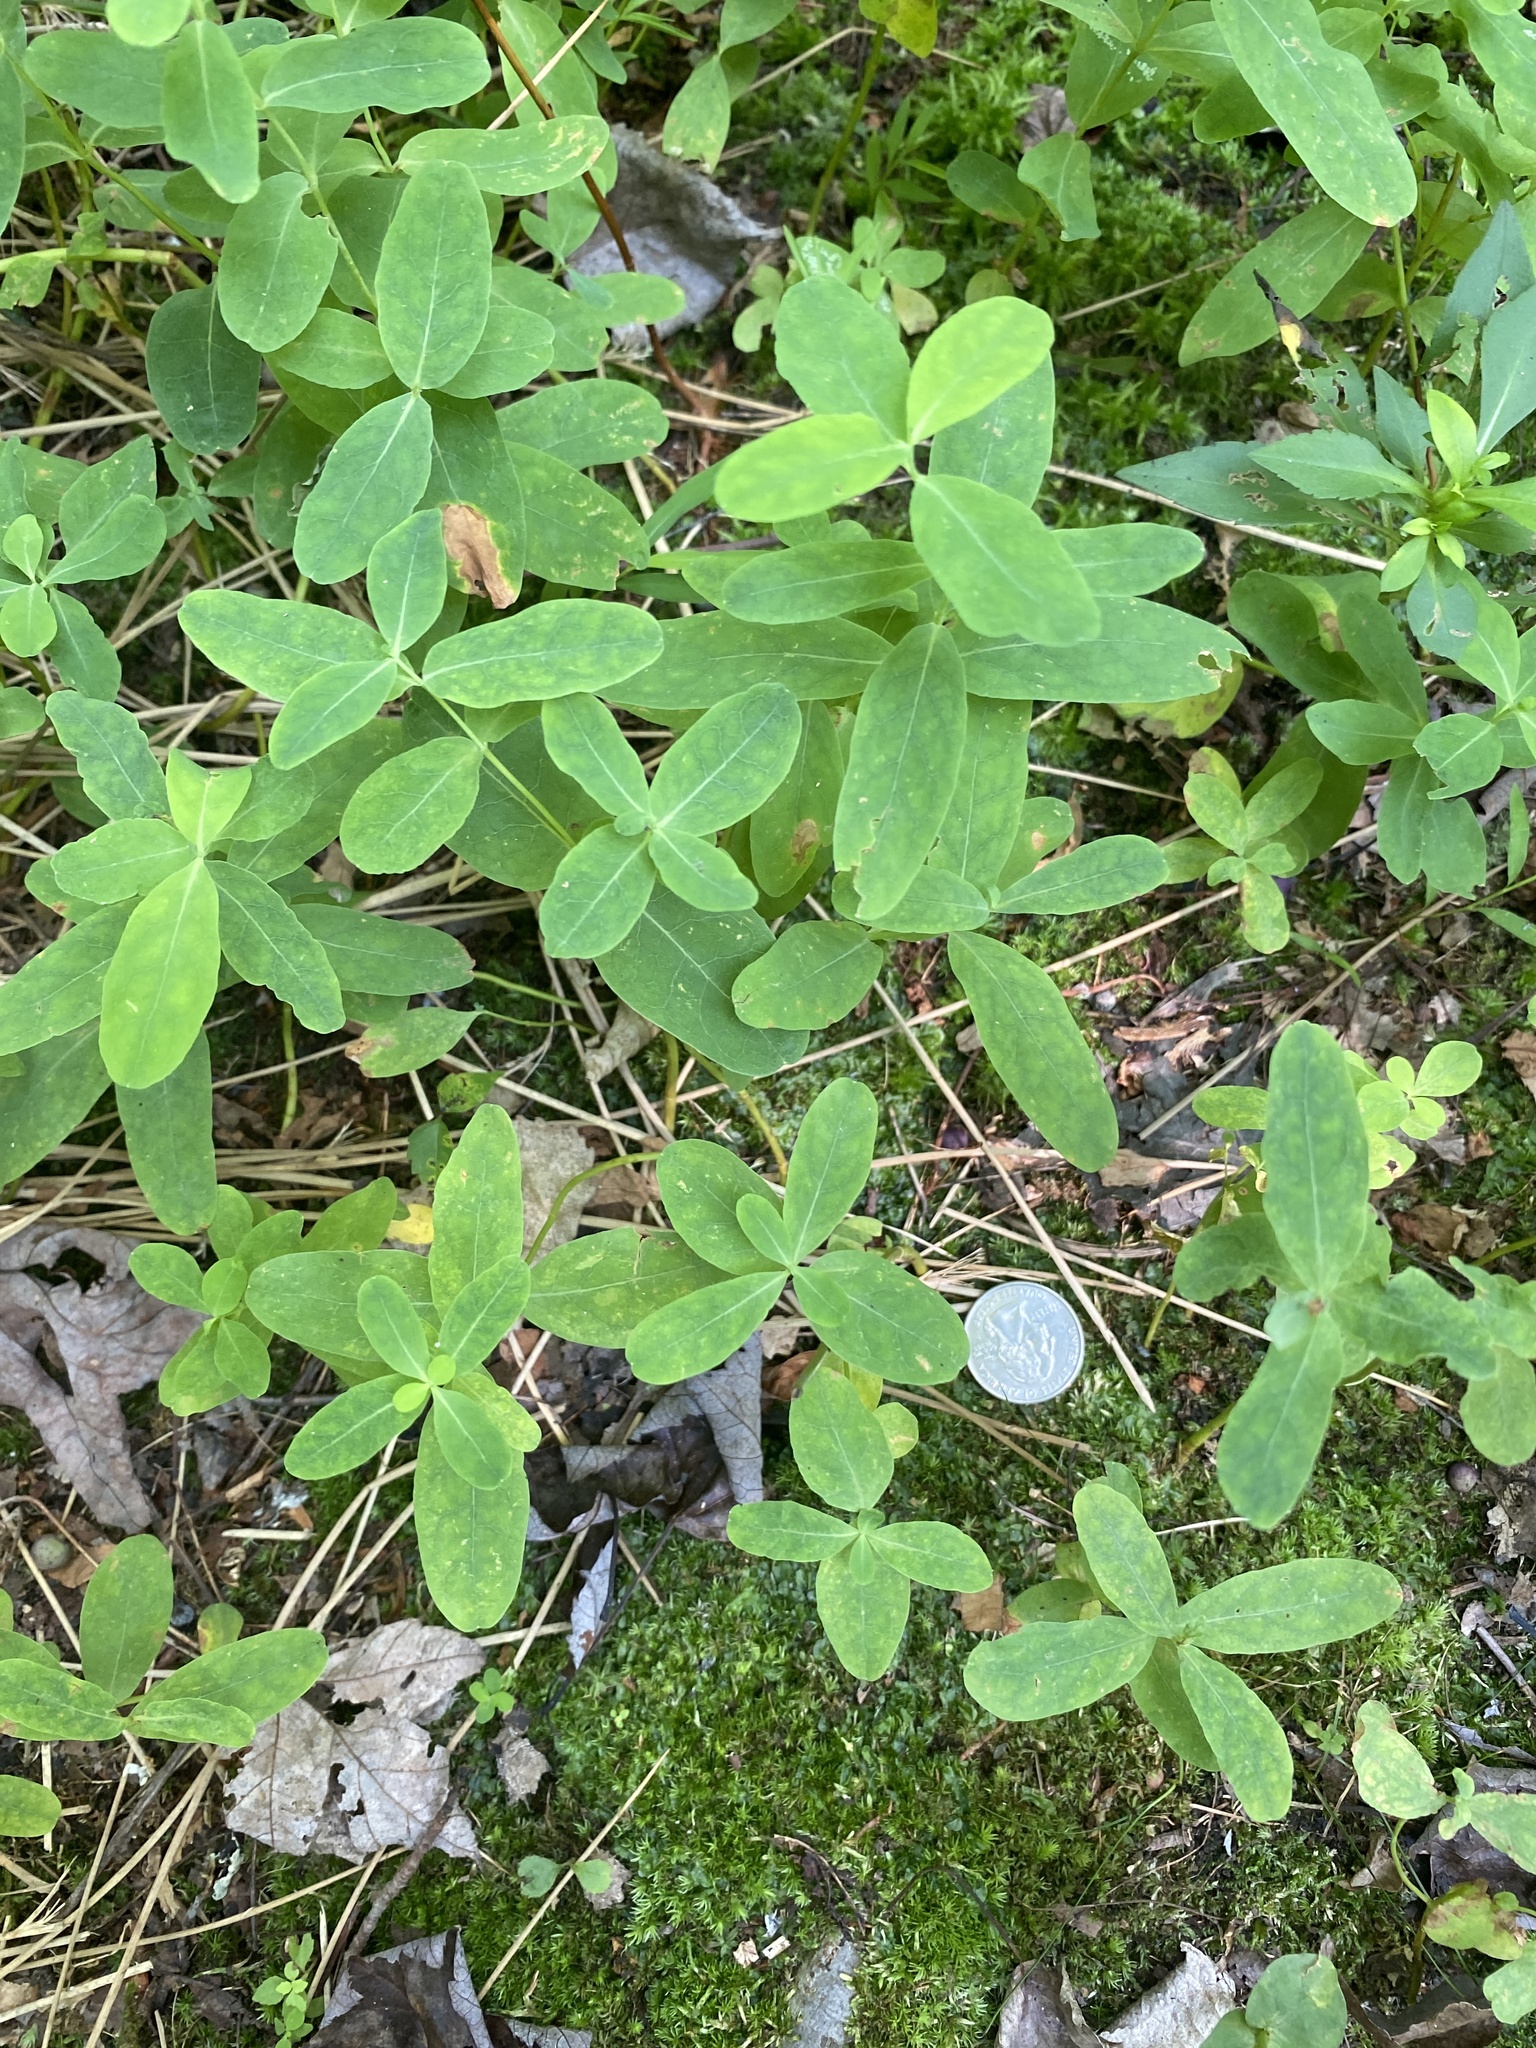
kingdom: Plantae
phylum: Tracheophyta
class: Magnoliopsida
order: Malpighiales
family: Hypericaceae
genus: Triadenum
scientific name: Triadenum virginicum
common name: Marsh st. john's-wort
